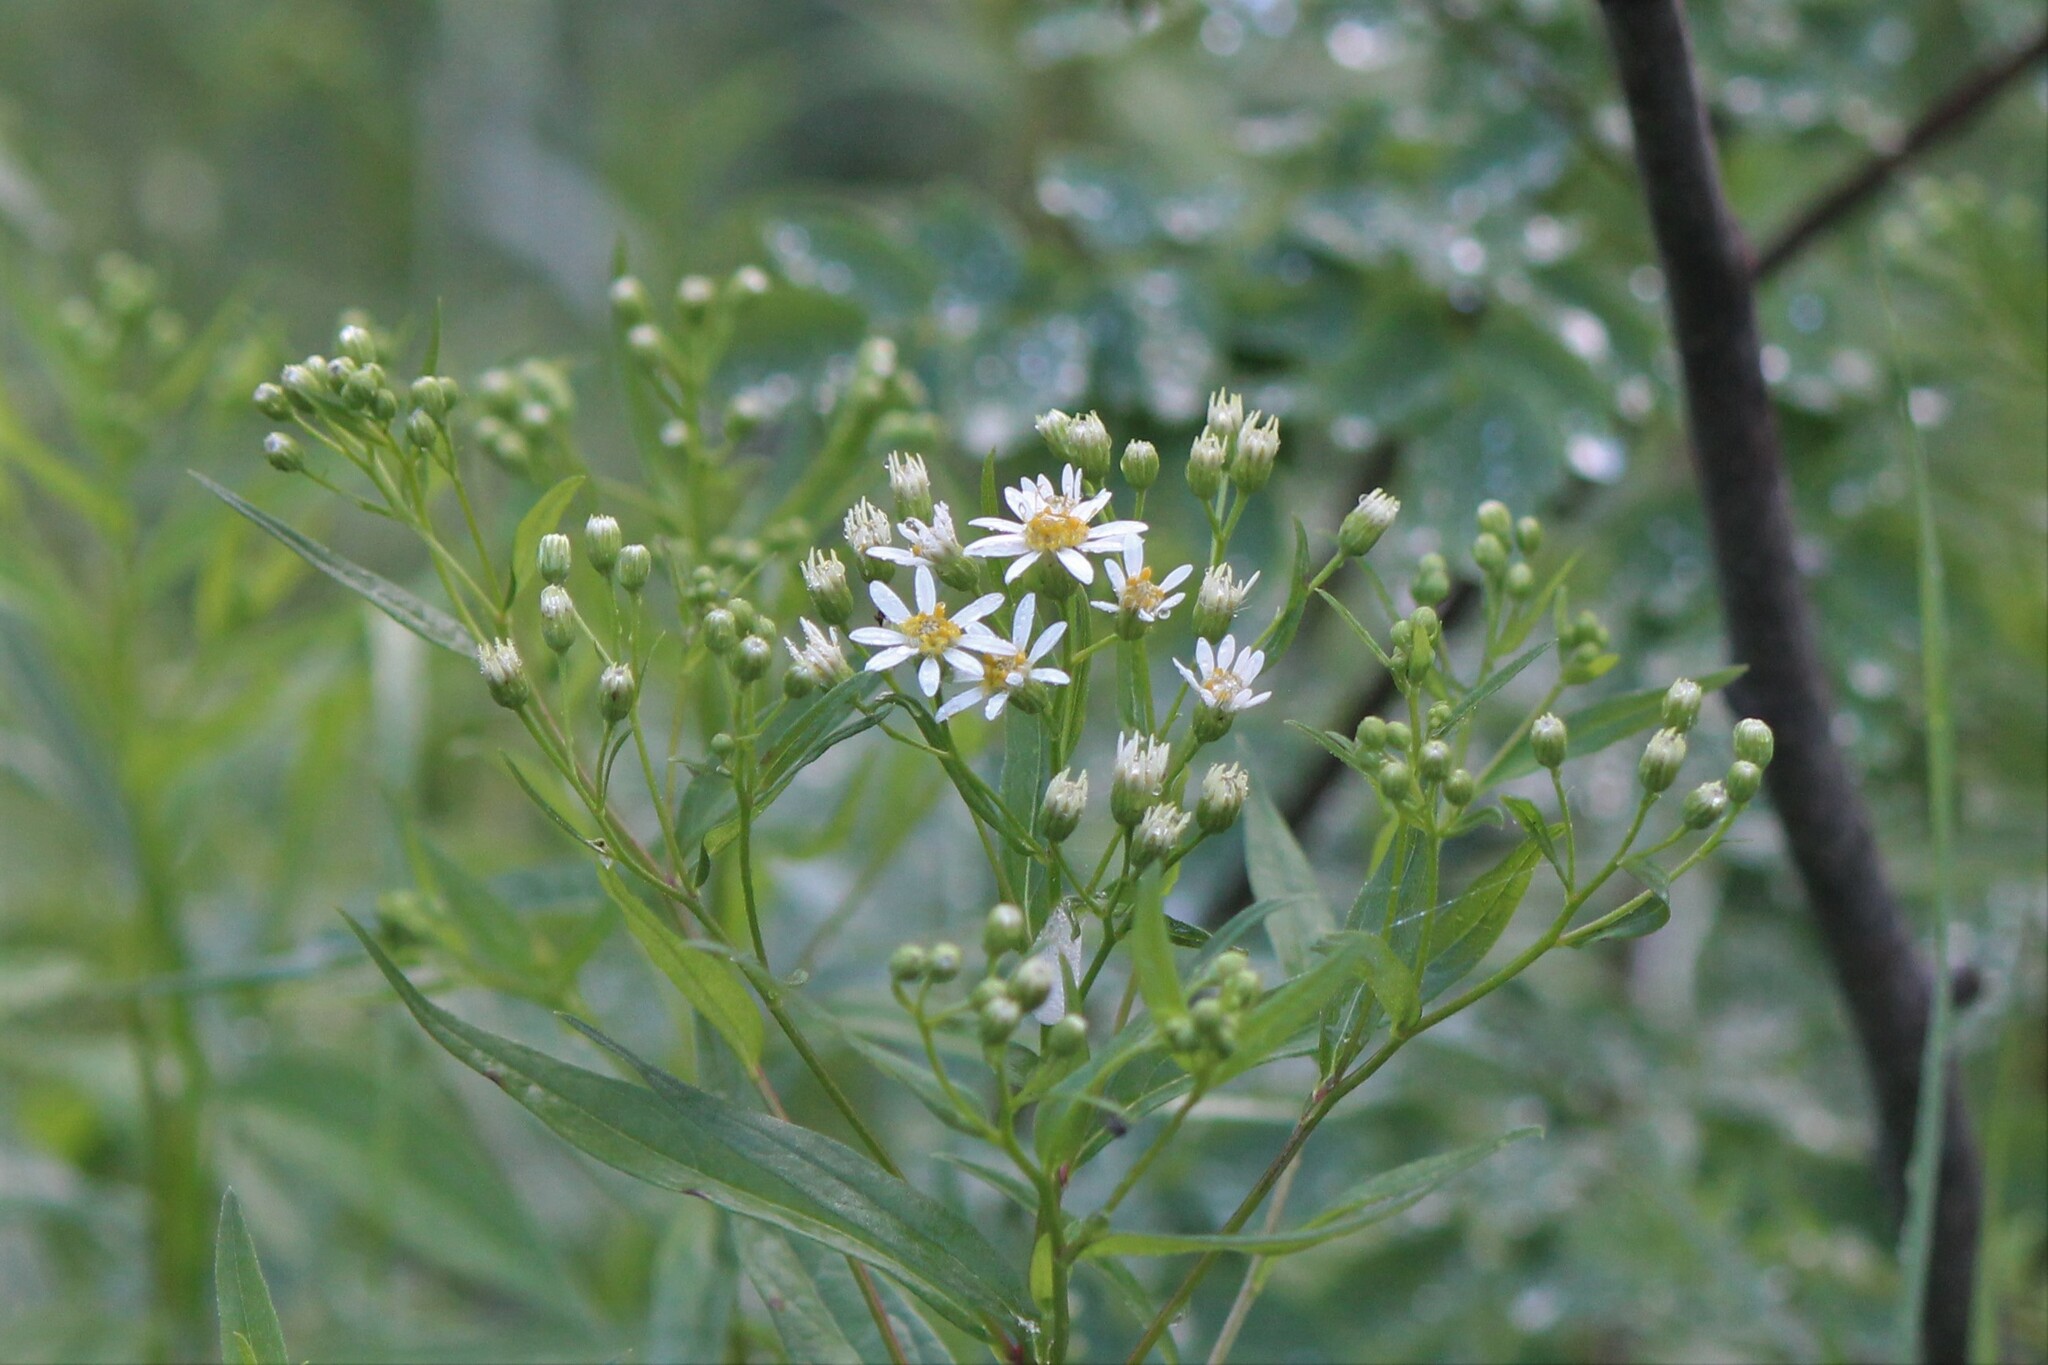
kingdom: Plantae
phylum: Tracheophyta
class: Magnoliopsida
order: Asterales
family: Asteraceae
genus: Doellingeria
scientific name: Doellingeria umbellata
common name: Flat-top white aster
